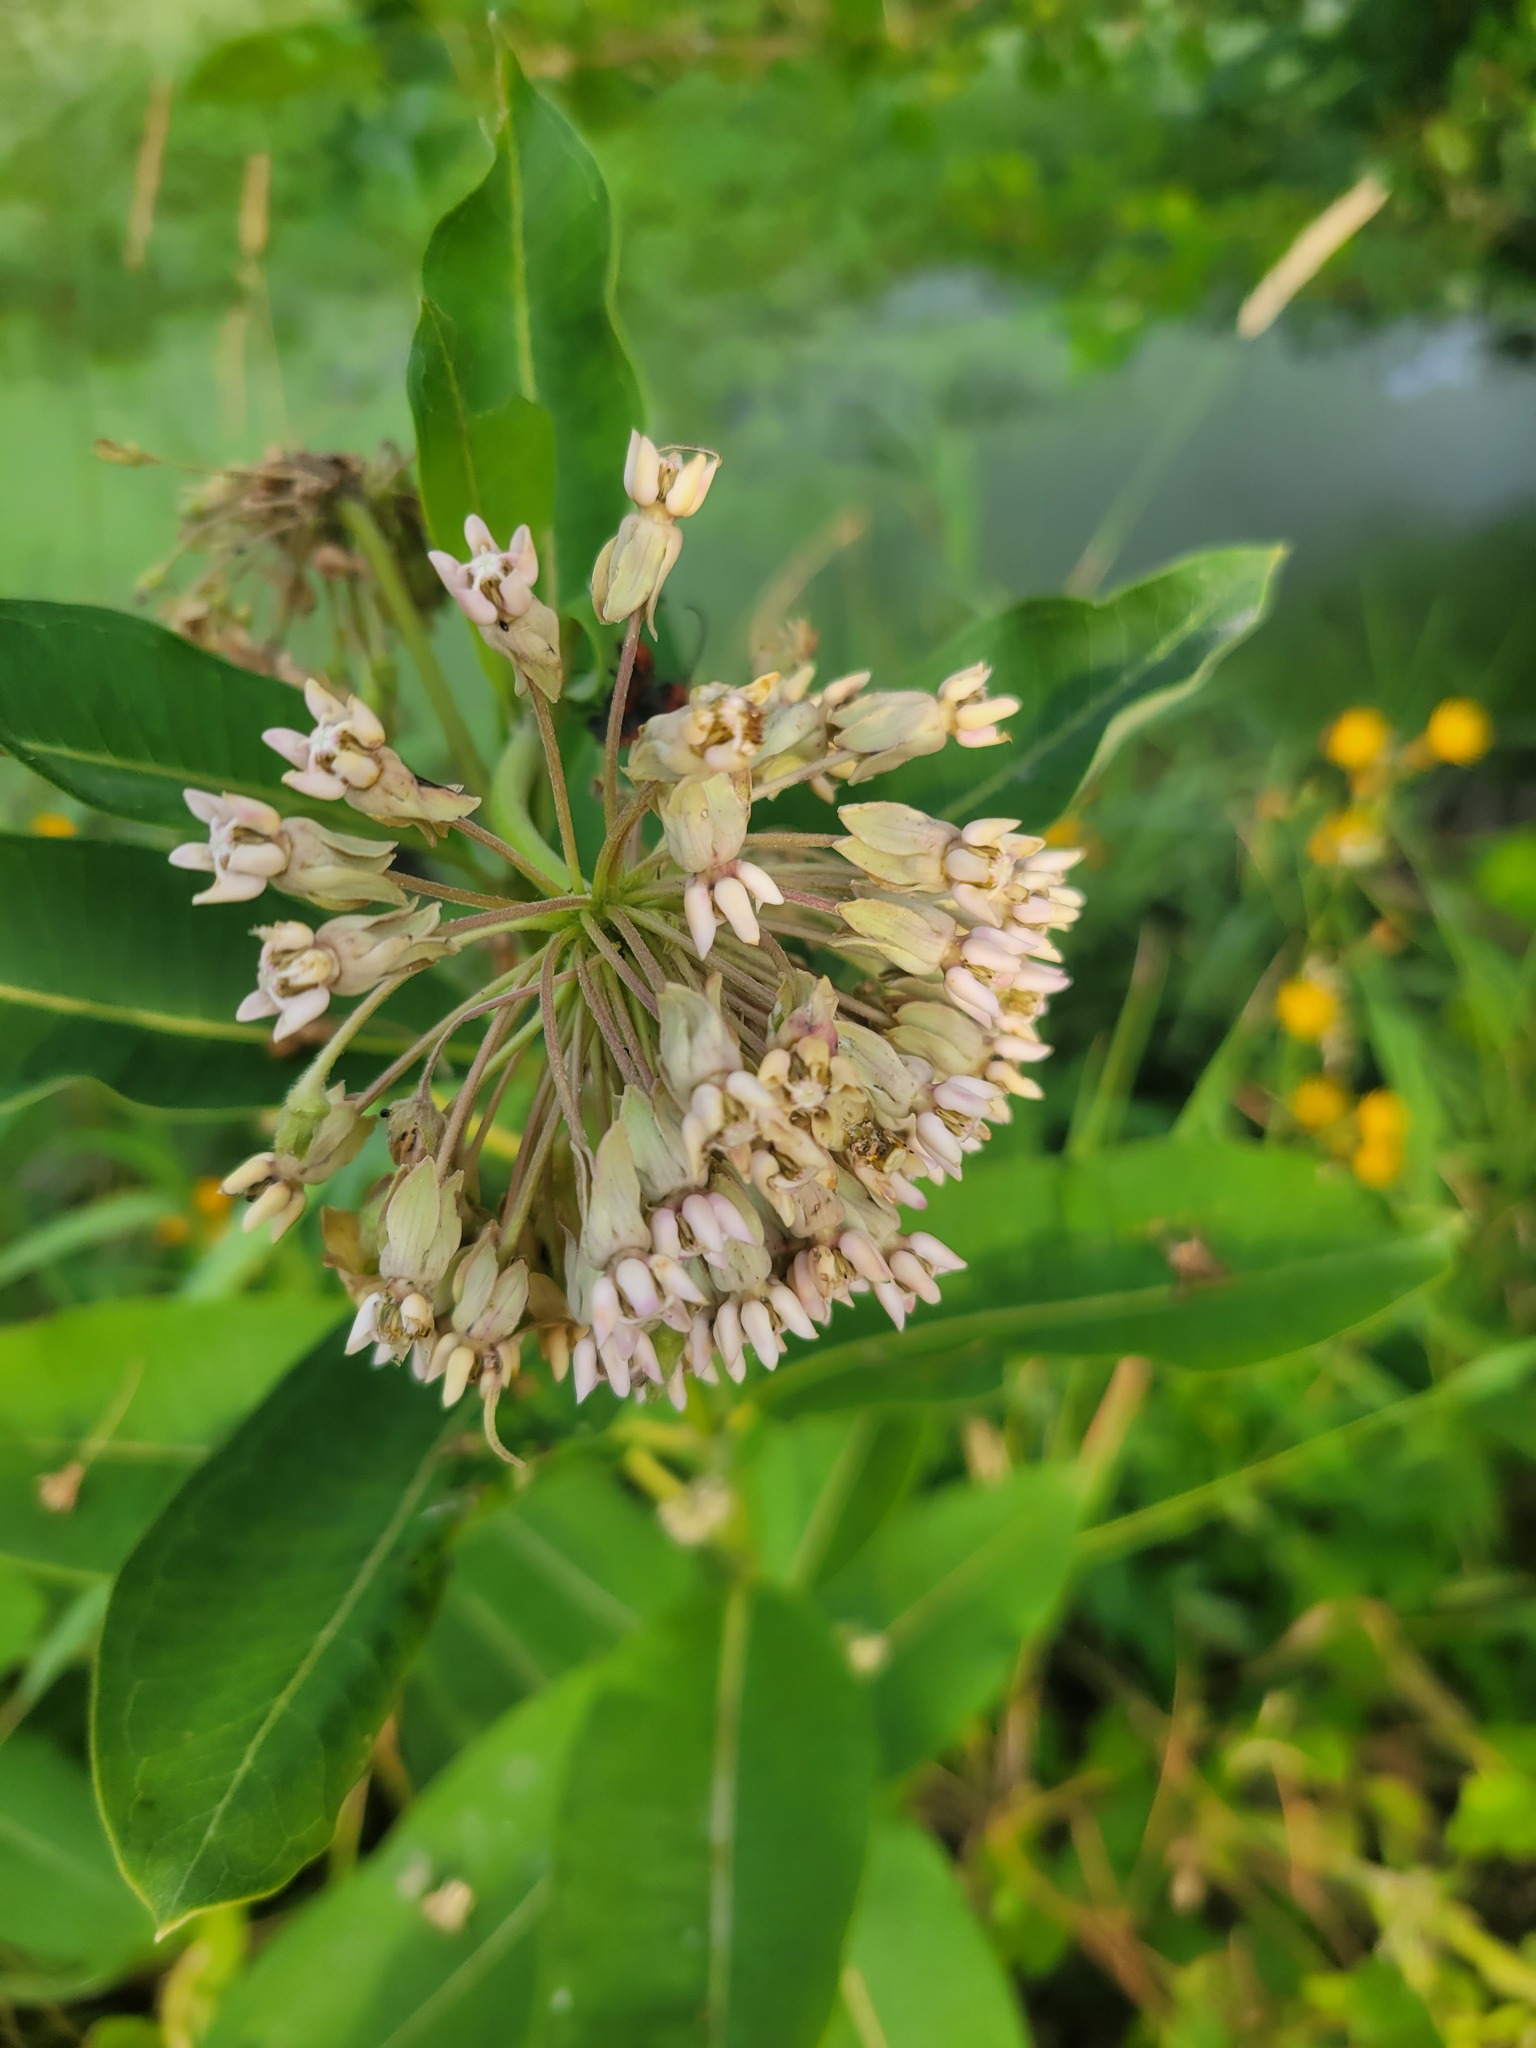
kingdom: Animalia
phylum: Arthropoda
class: Insecta
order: Coleoptera
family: Cerambycidae
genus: Tetraopes
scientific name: Tetraopes tetrophthalmus
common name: Red milkweed beetle
